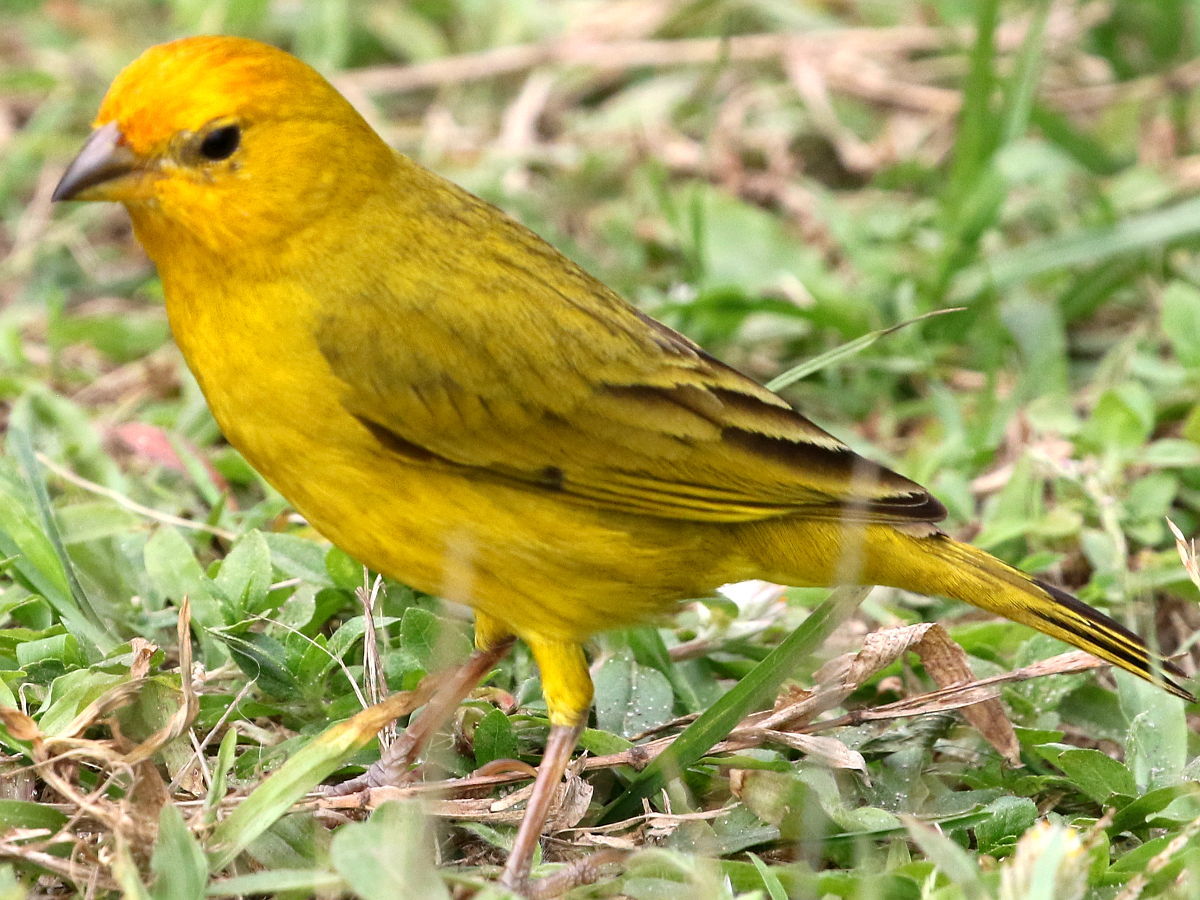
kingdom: Animalia
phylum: Chordata
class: Aves
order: Passeriformes
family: Thraupidae
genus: Sicalis
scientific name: Sicalis flaveola
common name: Saffron finch
